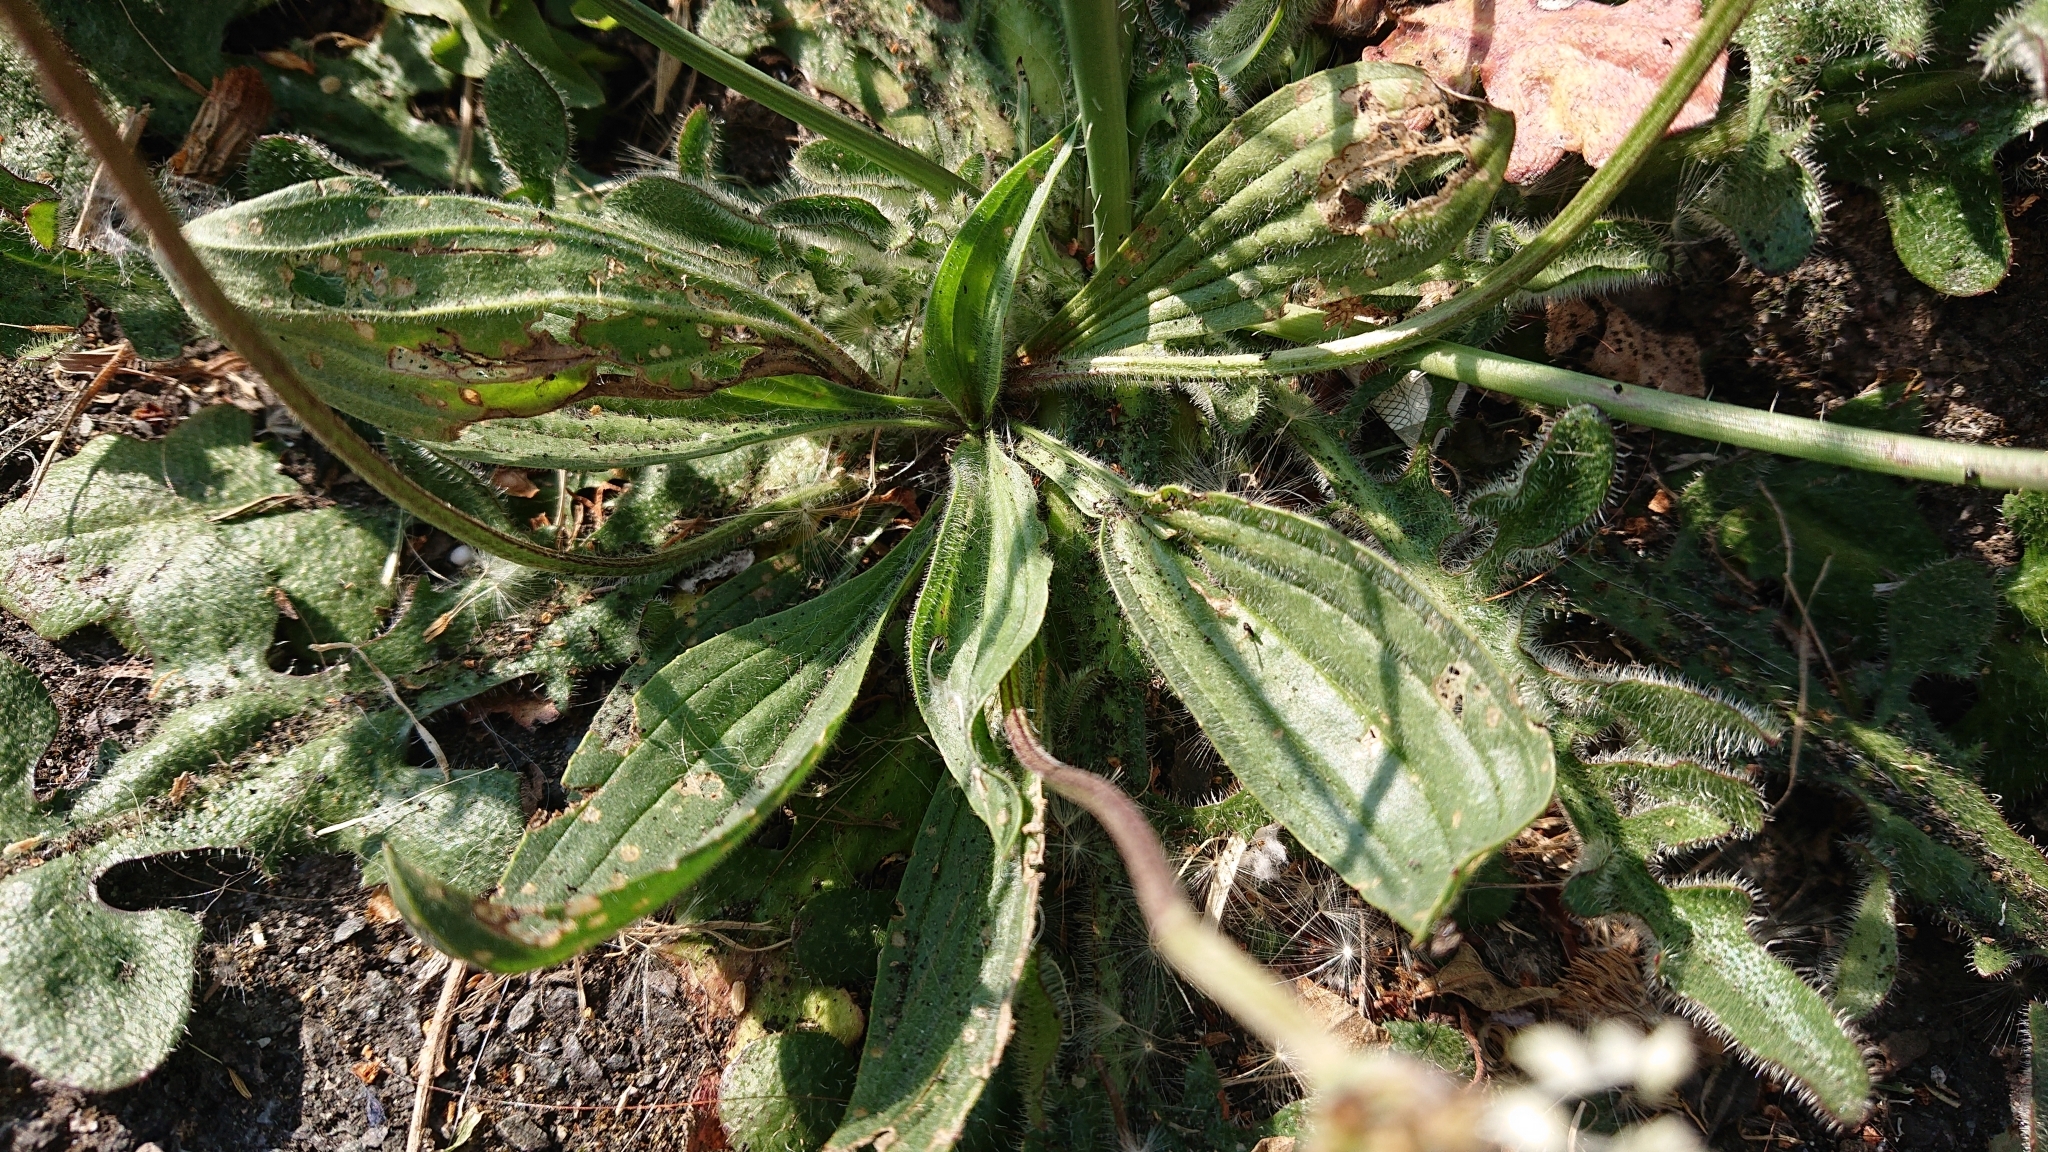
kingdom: Plantae
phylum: Tracheophyta
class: Magnoliopsida
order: Lamiales
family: Plantaginaceae
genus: Plantago
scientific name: Plantago lanceolata
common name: Ribwort plantain
